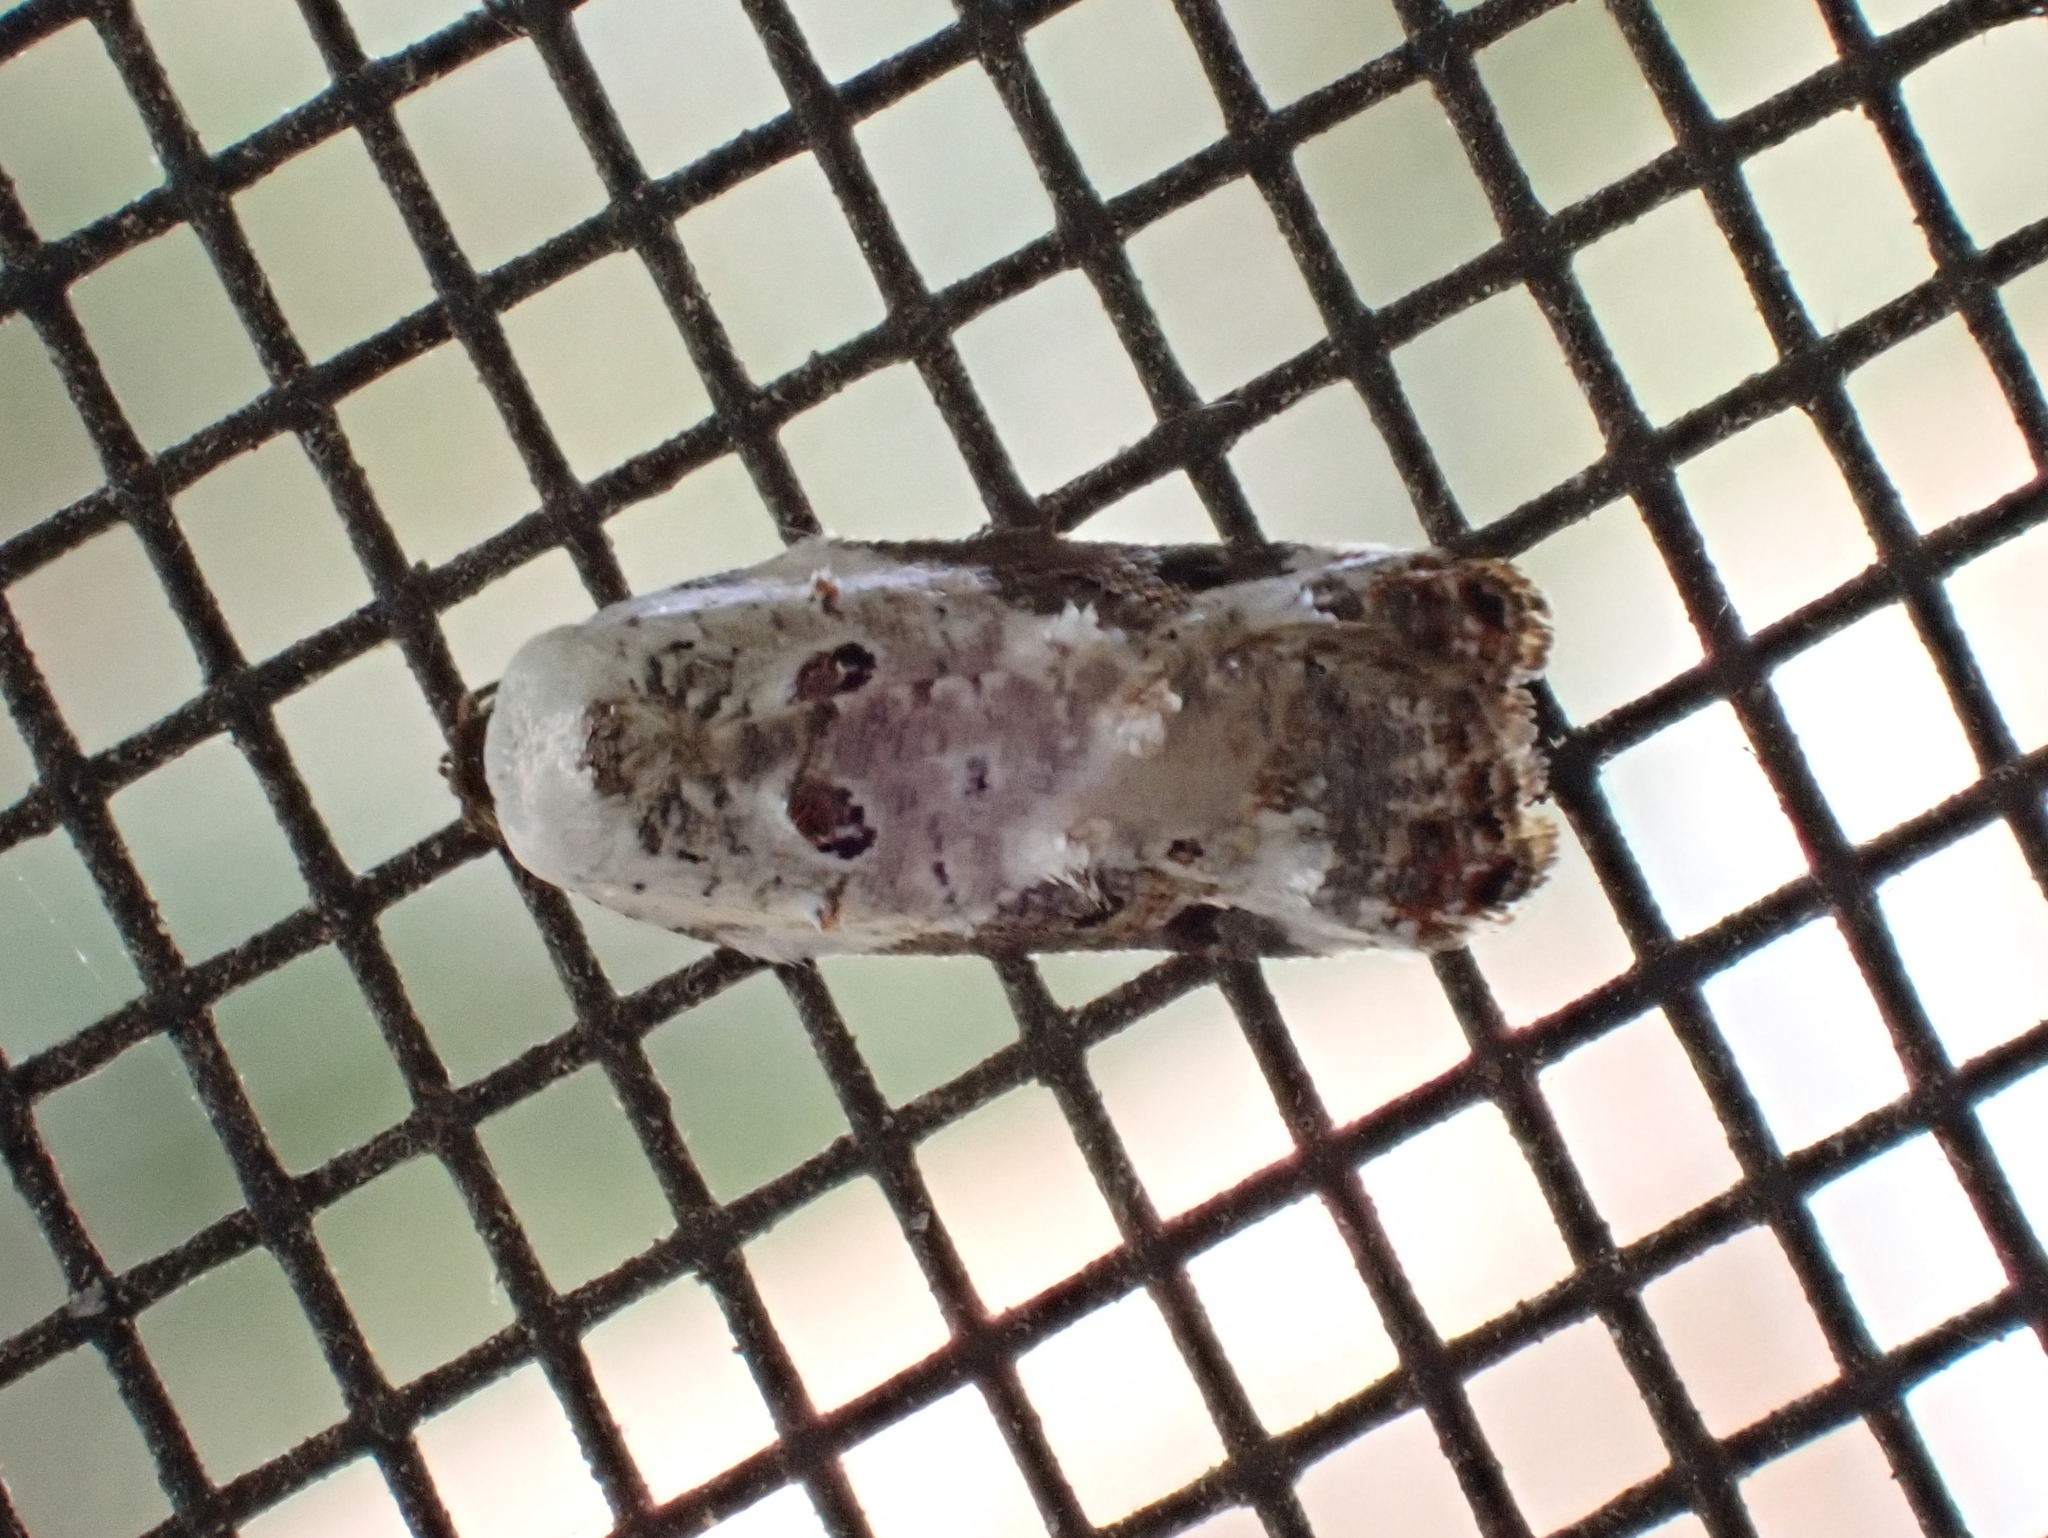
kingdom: Animalia
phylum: Arthropoda
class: Insecta
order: Lepidoptera
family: Tortricidae
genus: Acleris
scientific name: Acleris nivisellana
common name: Snowy-shouldered acleris moth
